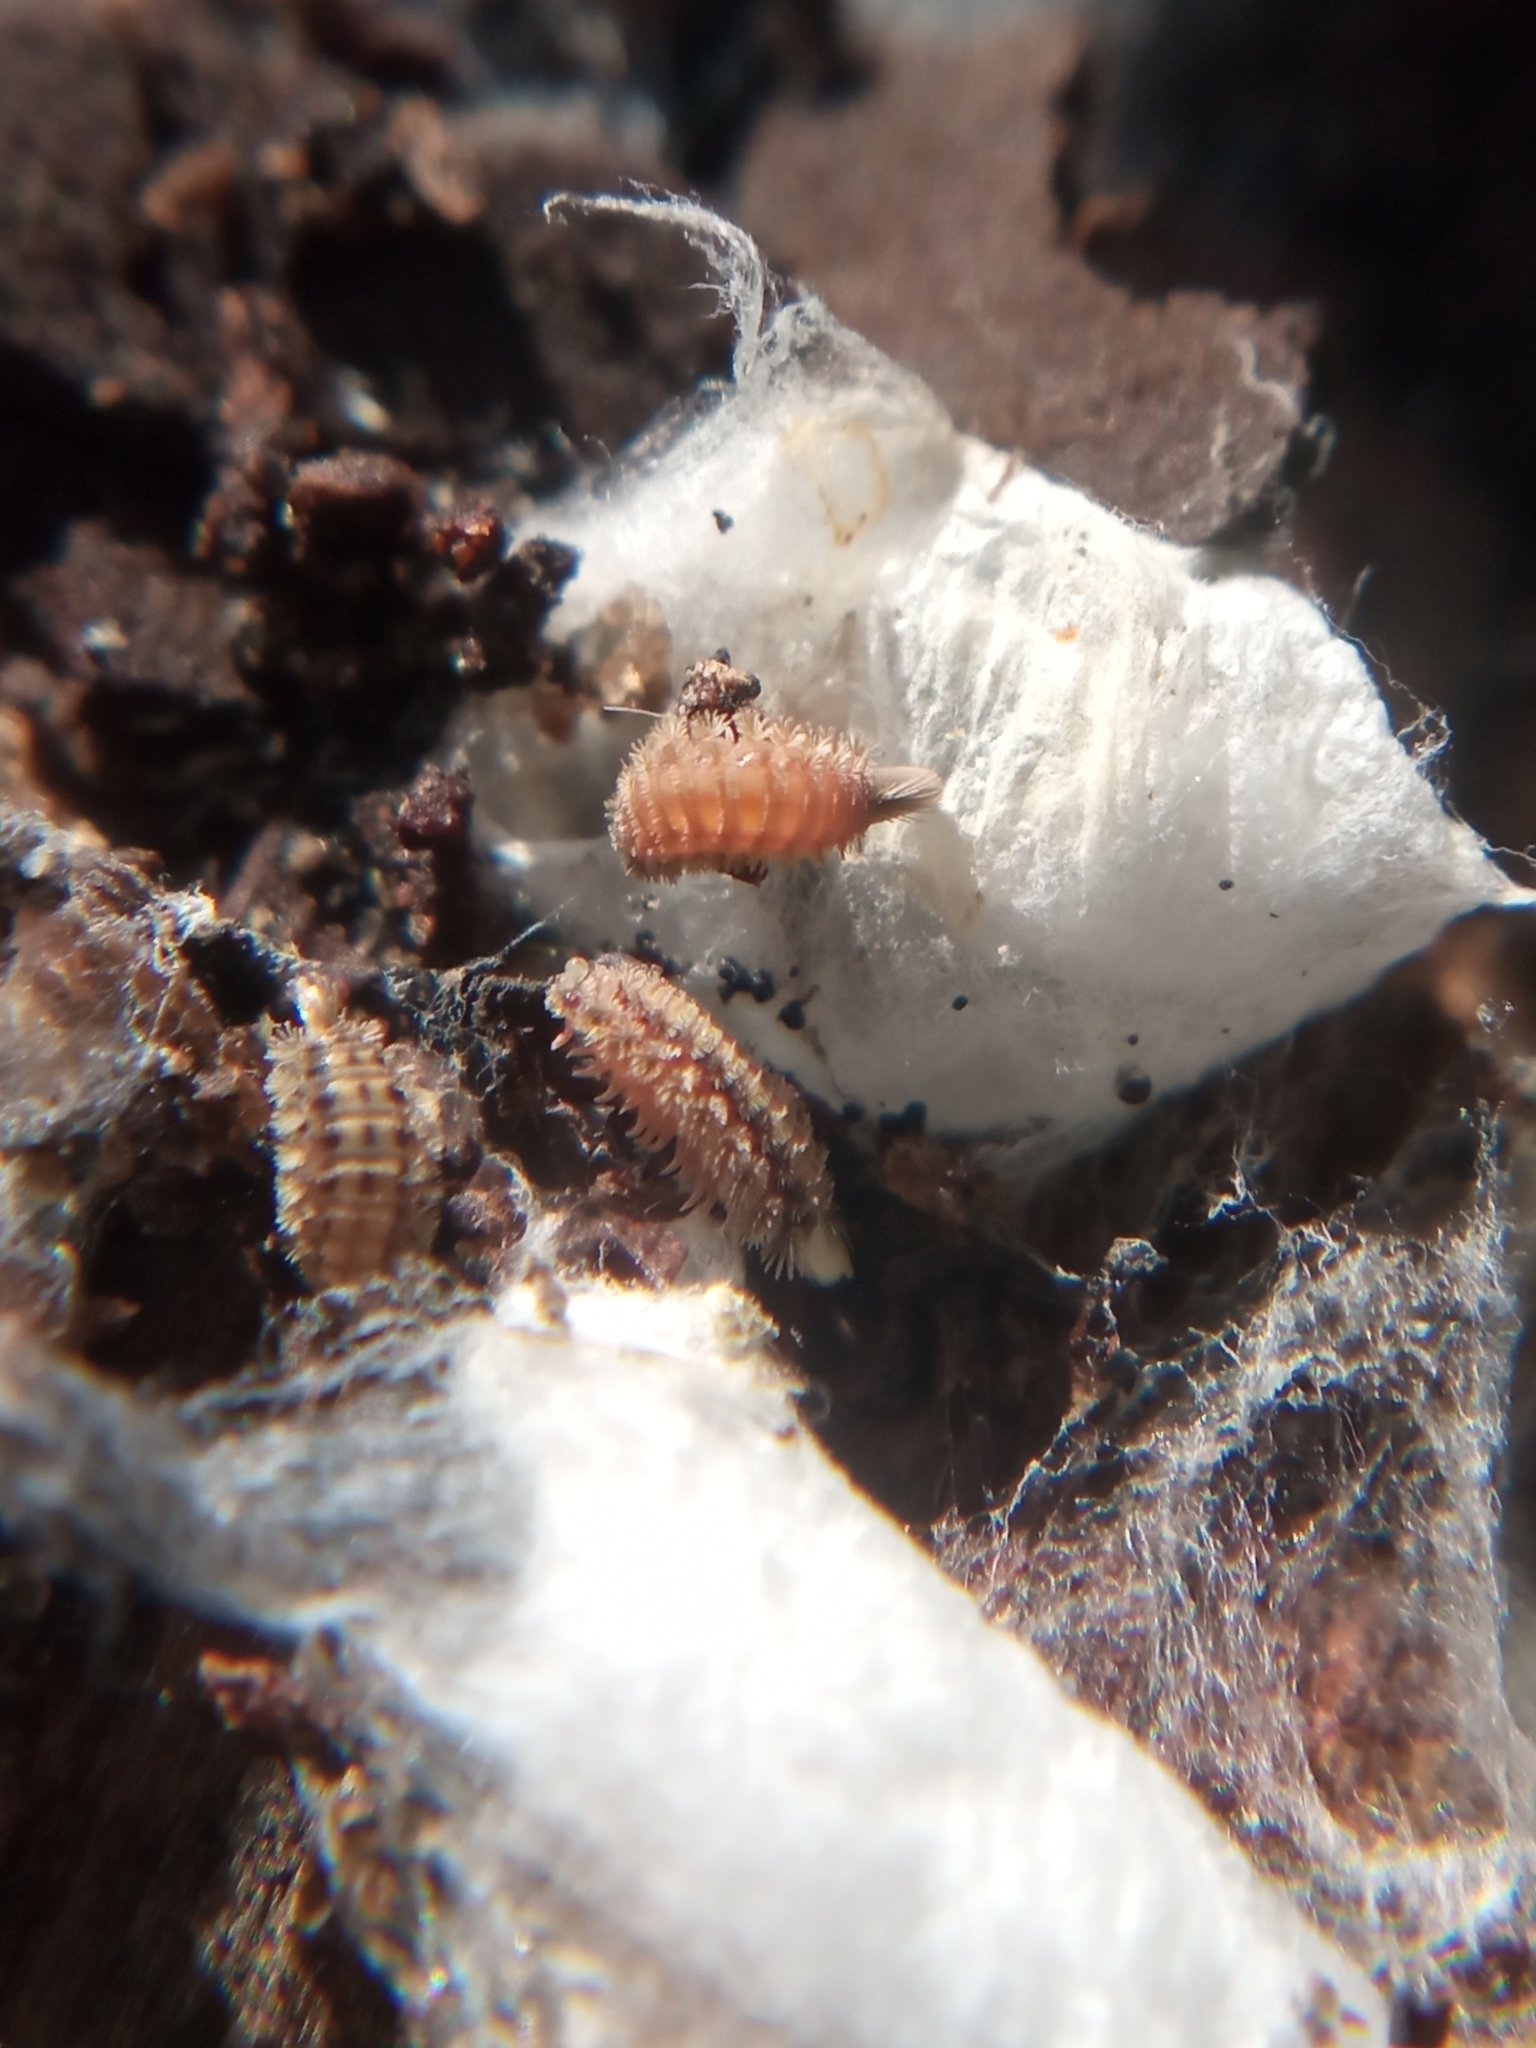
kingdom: Animalia
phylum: Arthropoda
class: Diplopoda
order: Polyxenida
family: Polyxenidae
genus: Polyxenus
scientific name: Polyxenus lagurus
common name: Bristly millipede
